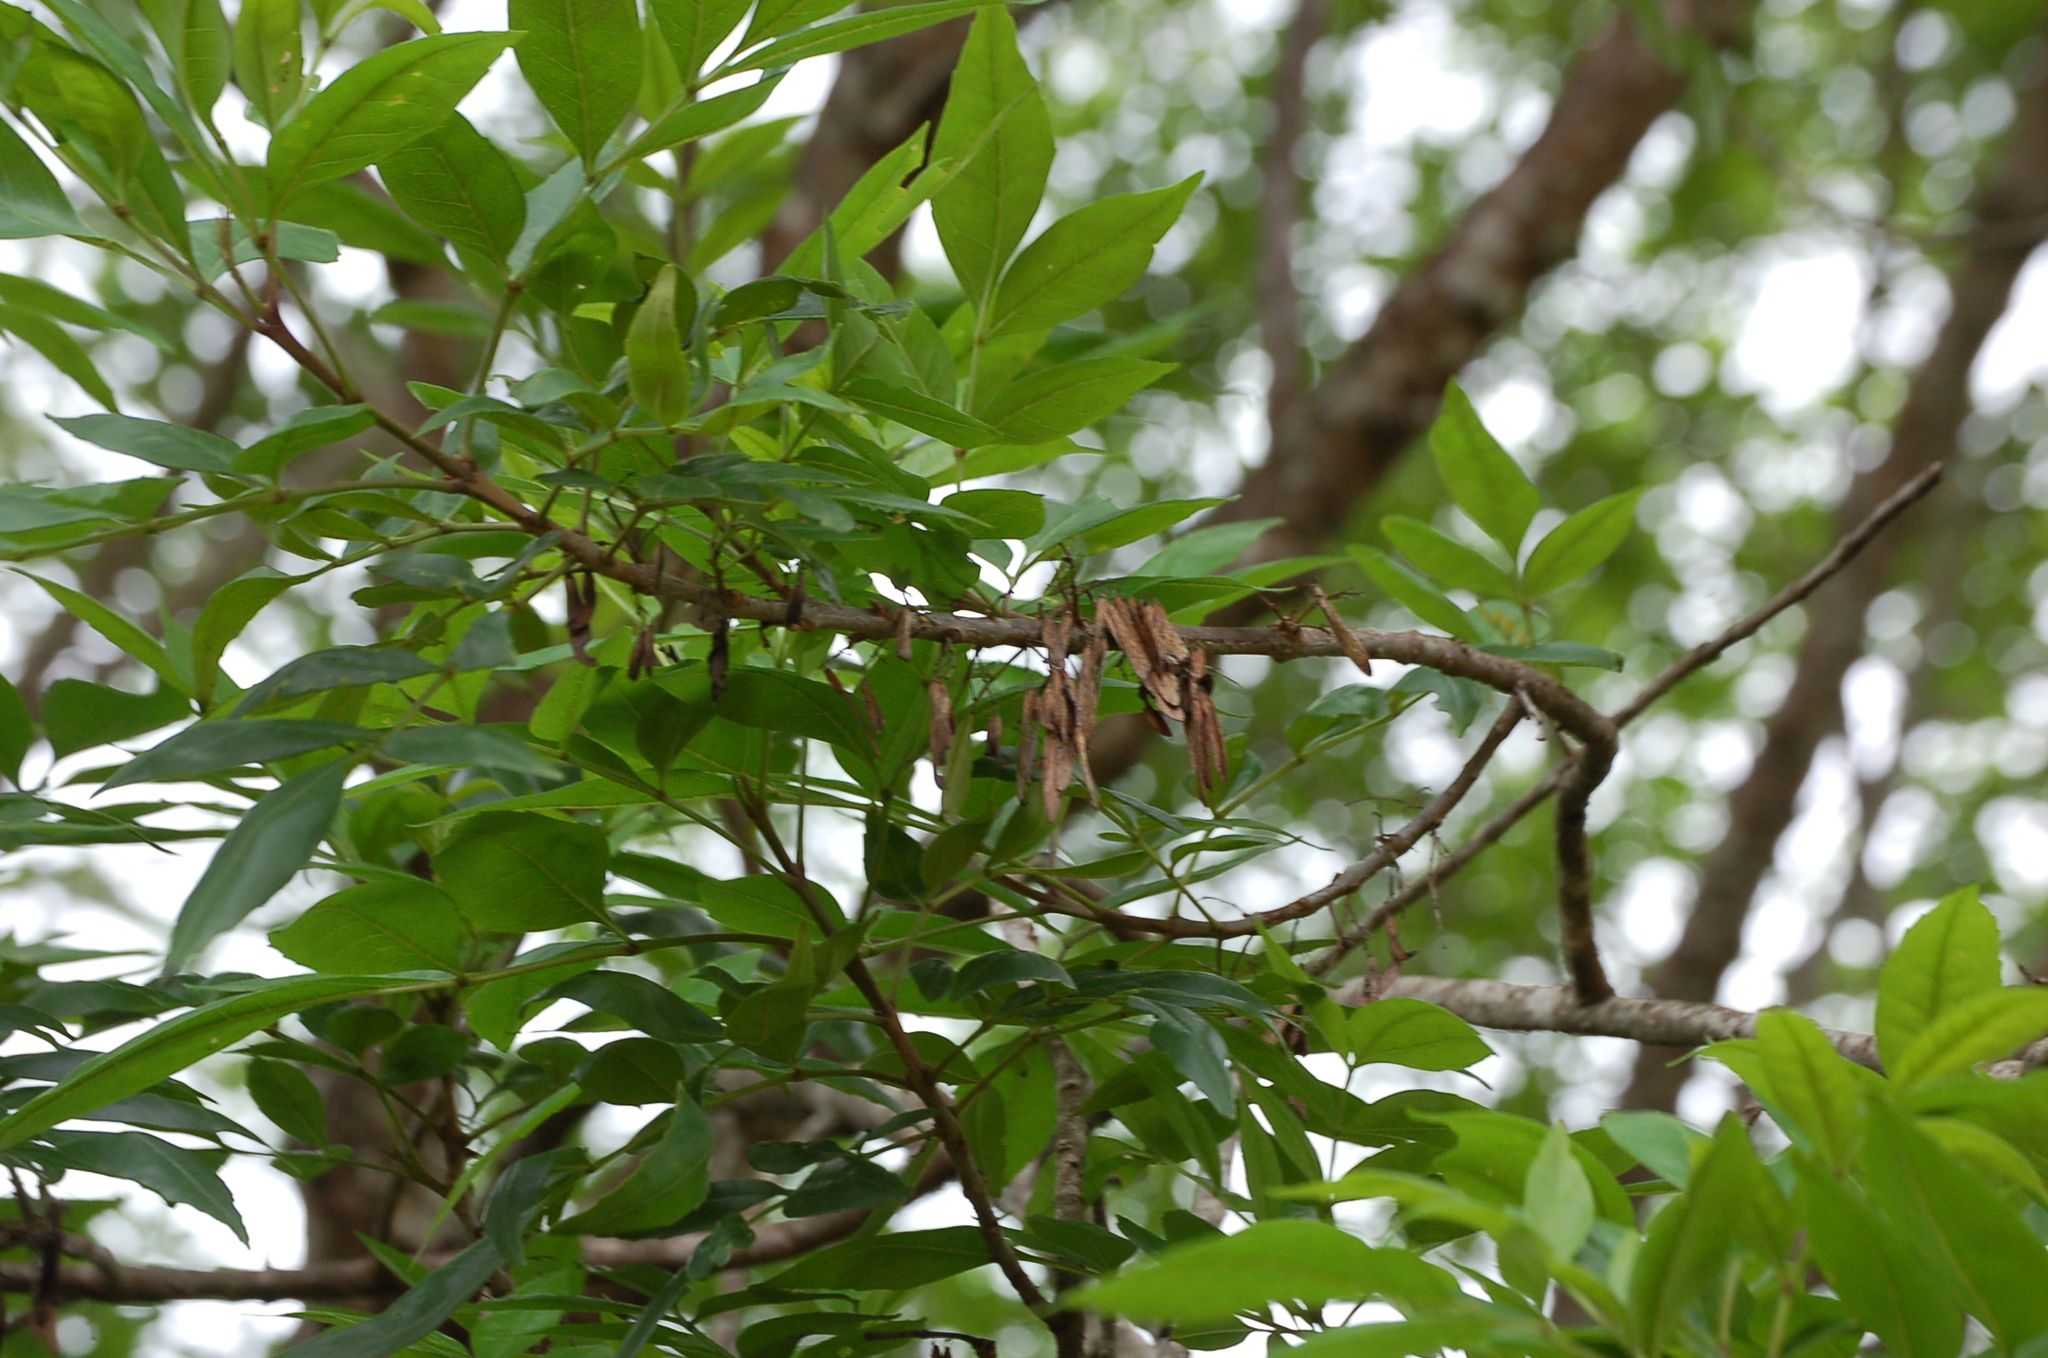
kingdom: Plantae
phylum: Tracheophyta
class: Magnoliopsida
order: Lamiales
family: Oleaceae
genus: Fraxinus
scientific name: Fraxinus purpusii
